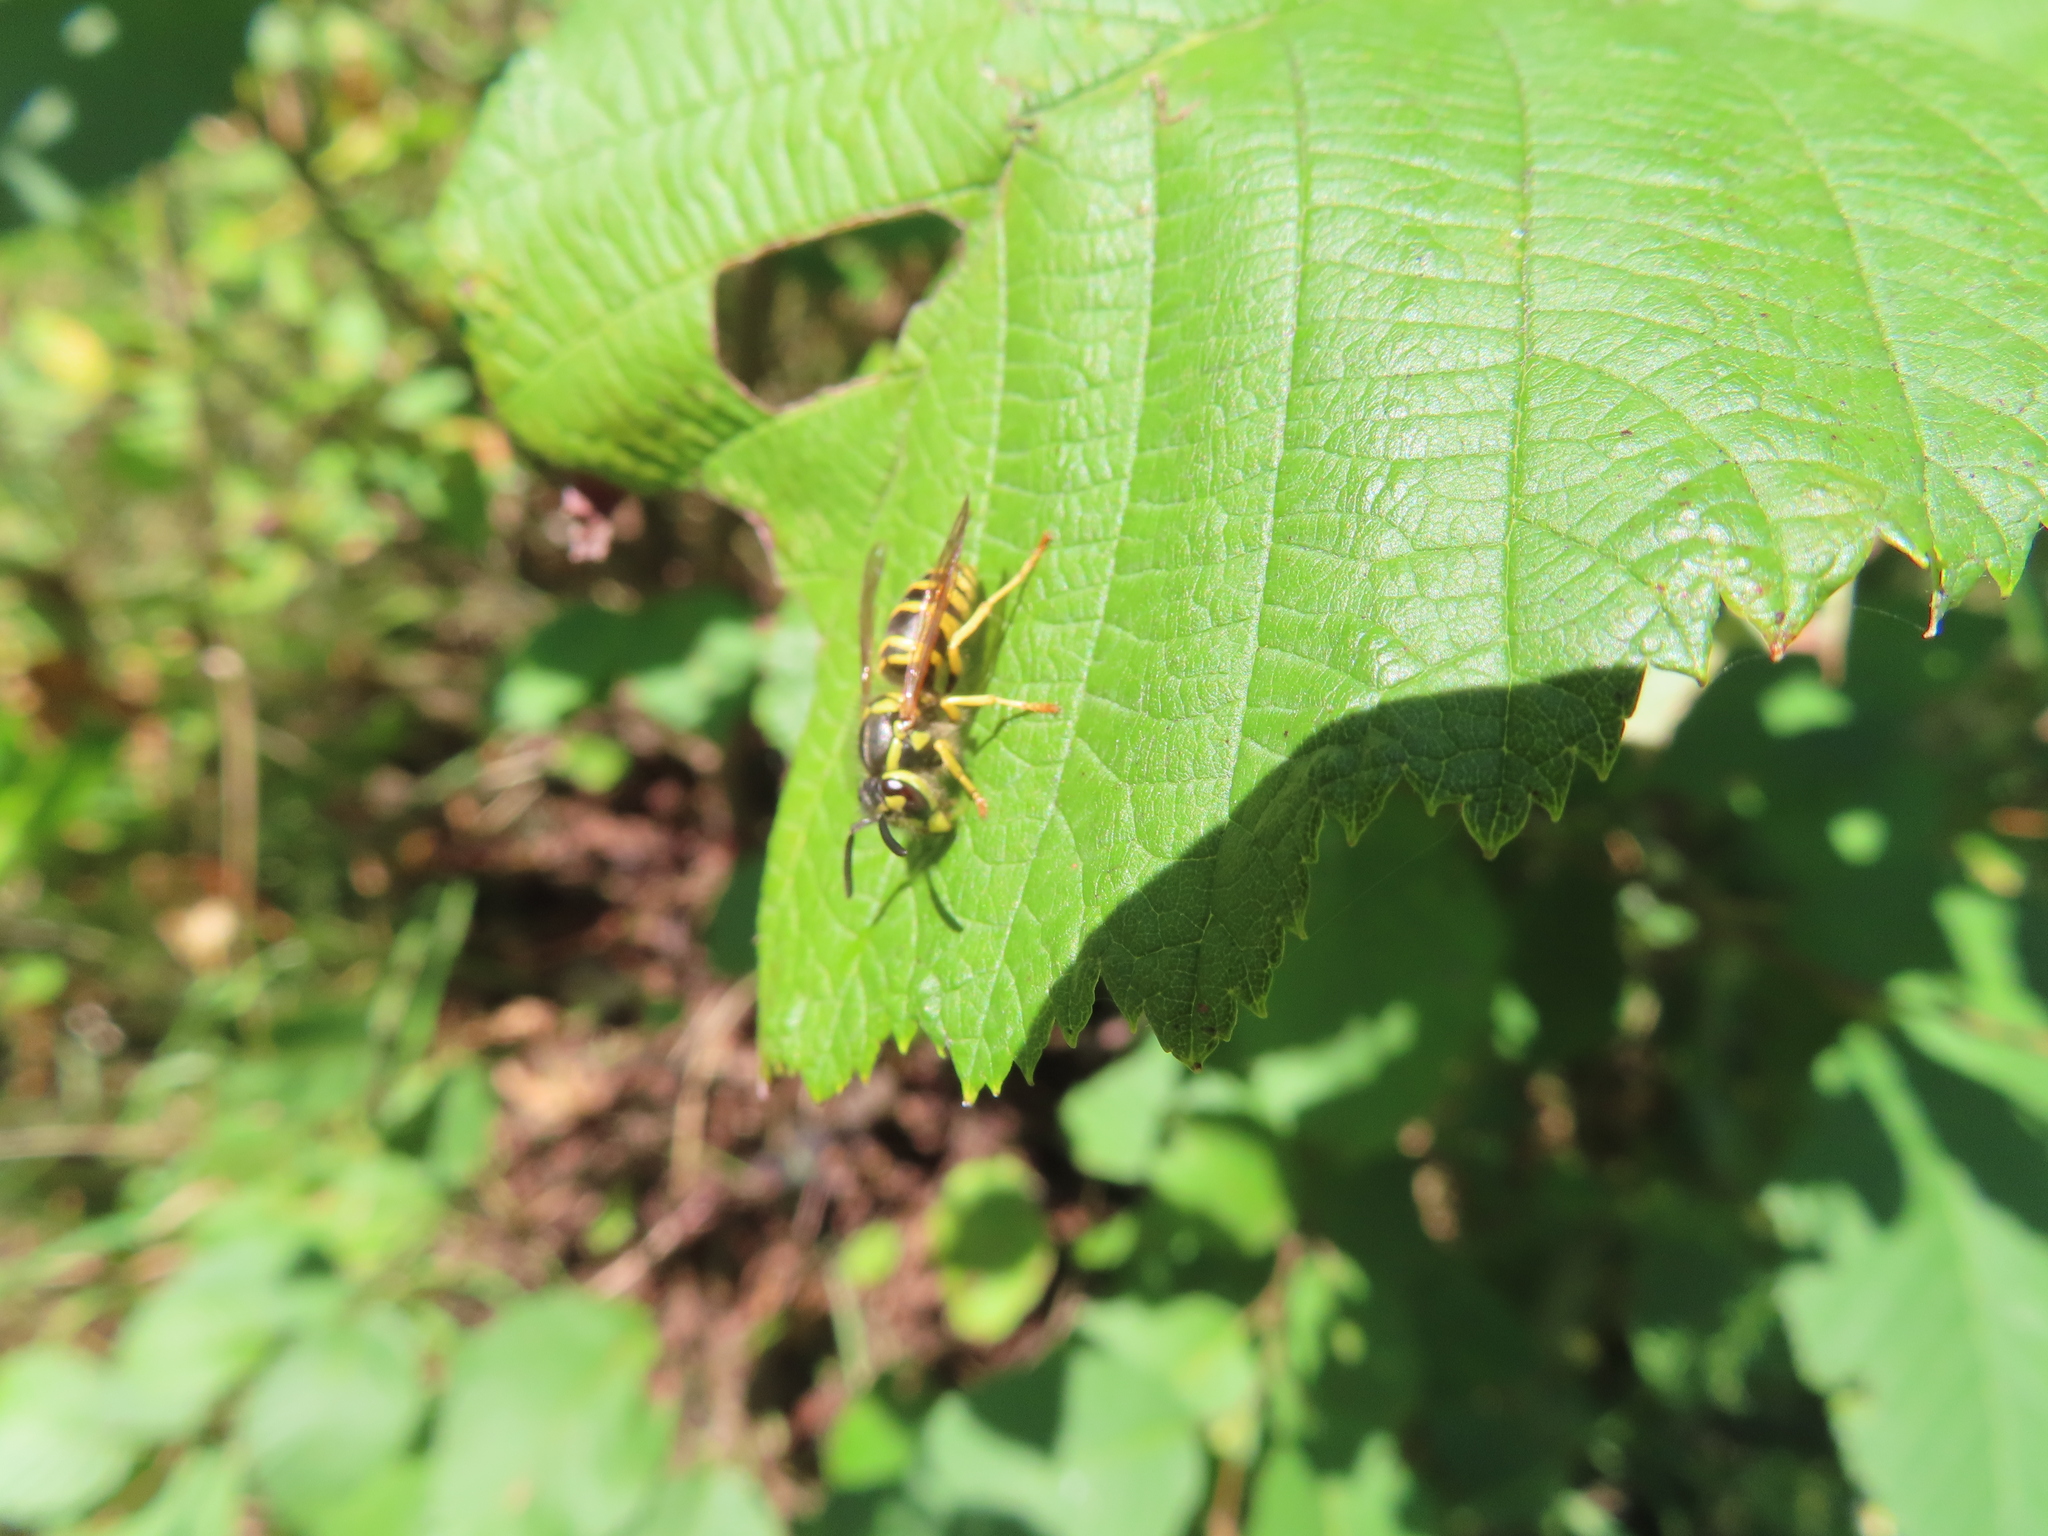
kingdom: Animalia
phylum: Arthropoda
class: Insecta
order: Hymenoptera
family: Vespidae
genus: Vespula
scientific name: Vespula maculifrons
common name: Eastern yellowjacket
